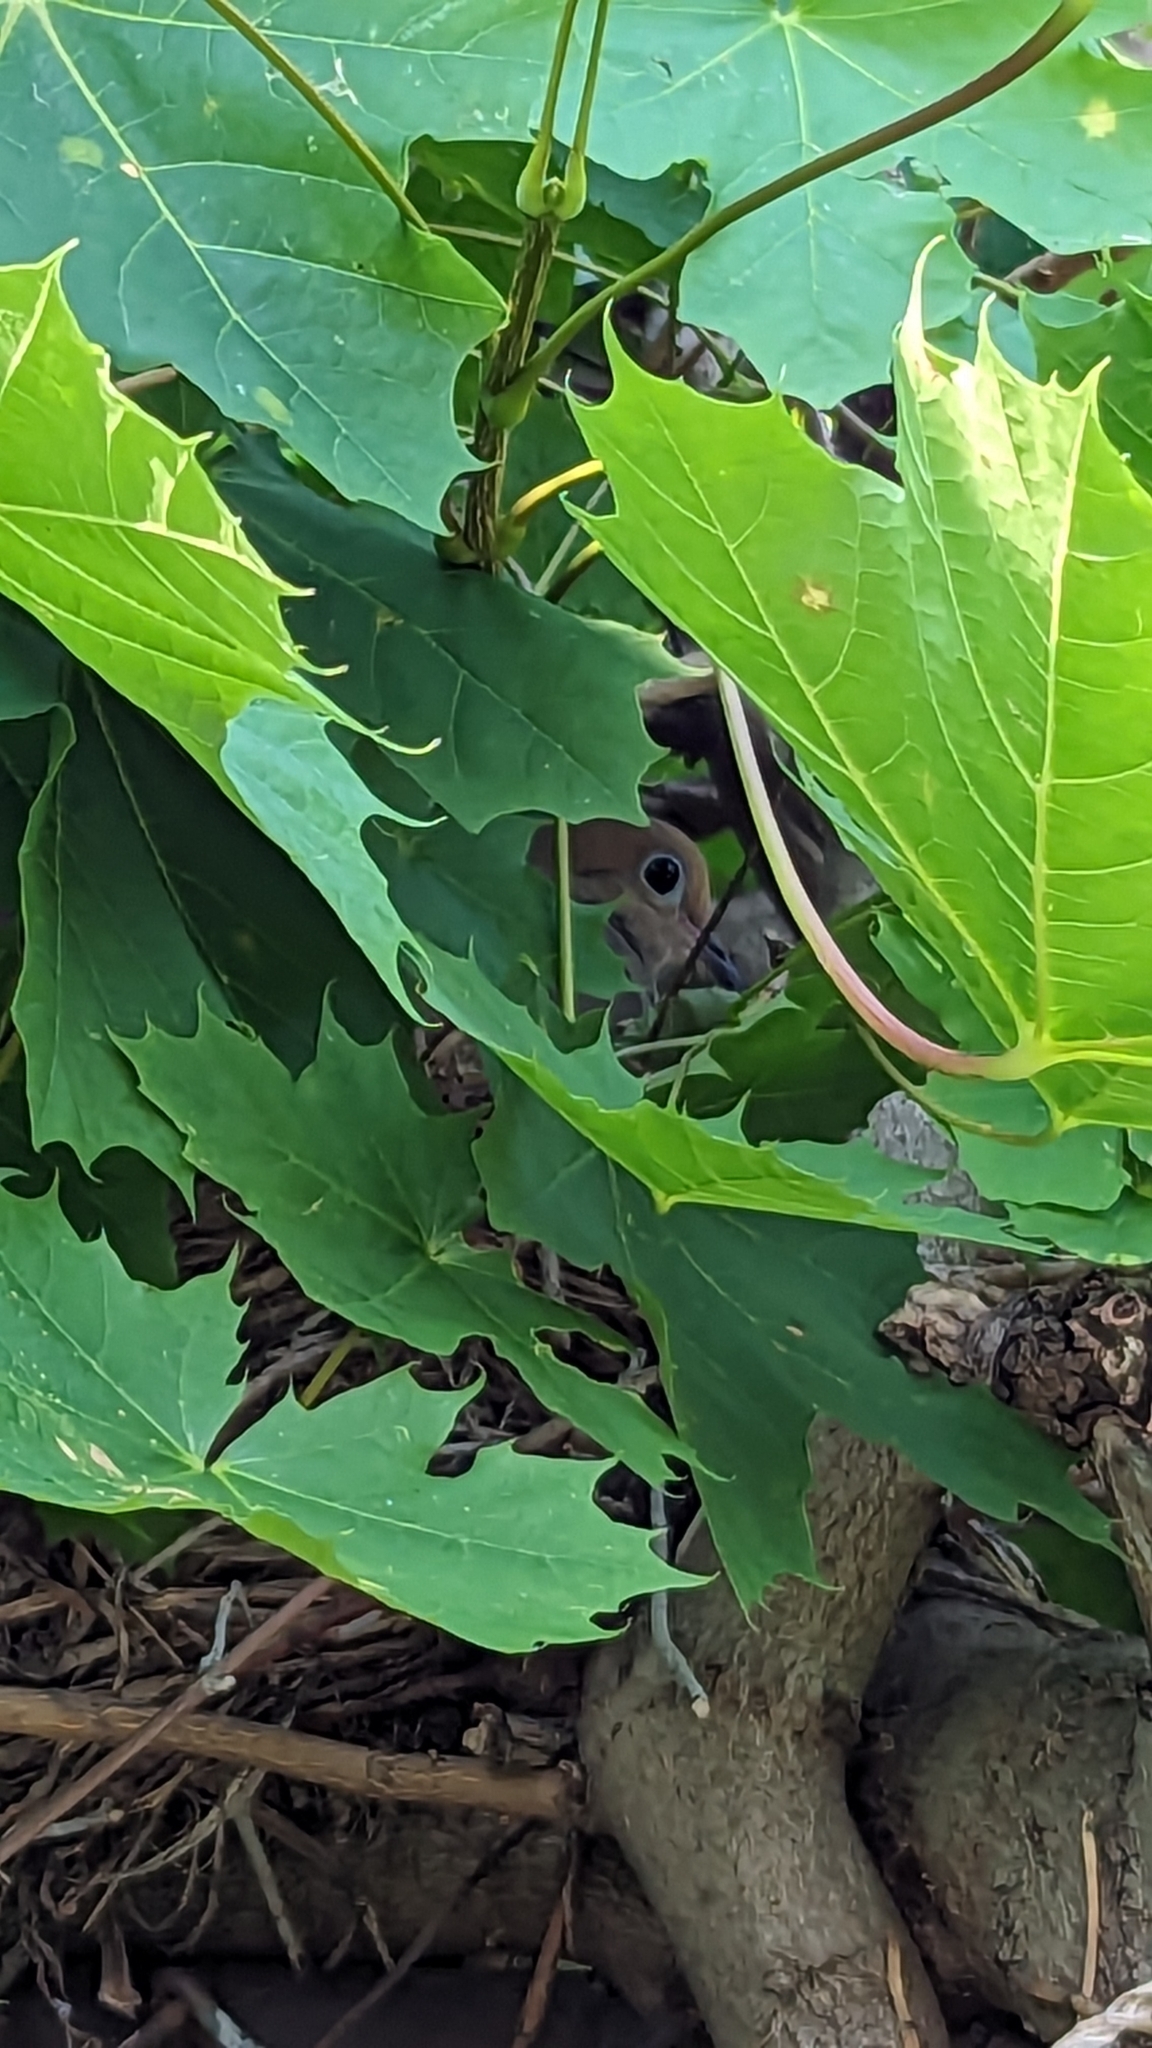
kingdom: Animalia
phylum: Chordata
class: Aves
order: Columbiformes
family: Columbidae
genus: Zenaida
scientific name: Zenaida macroura
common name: Mourning dove
